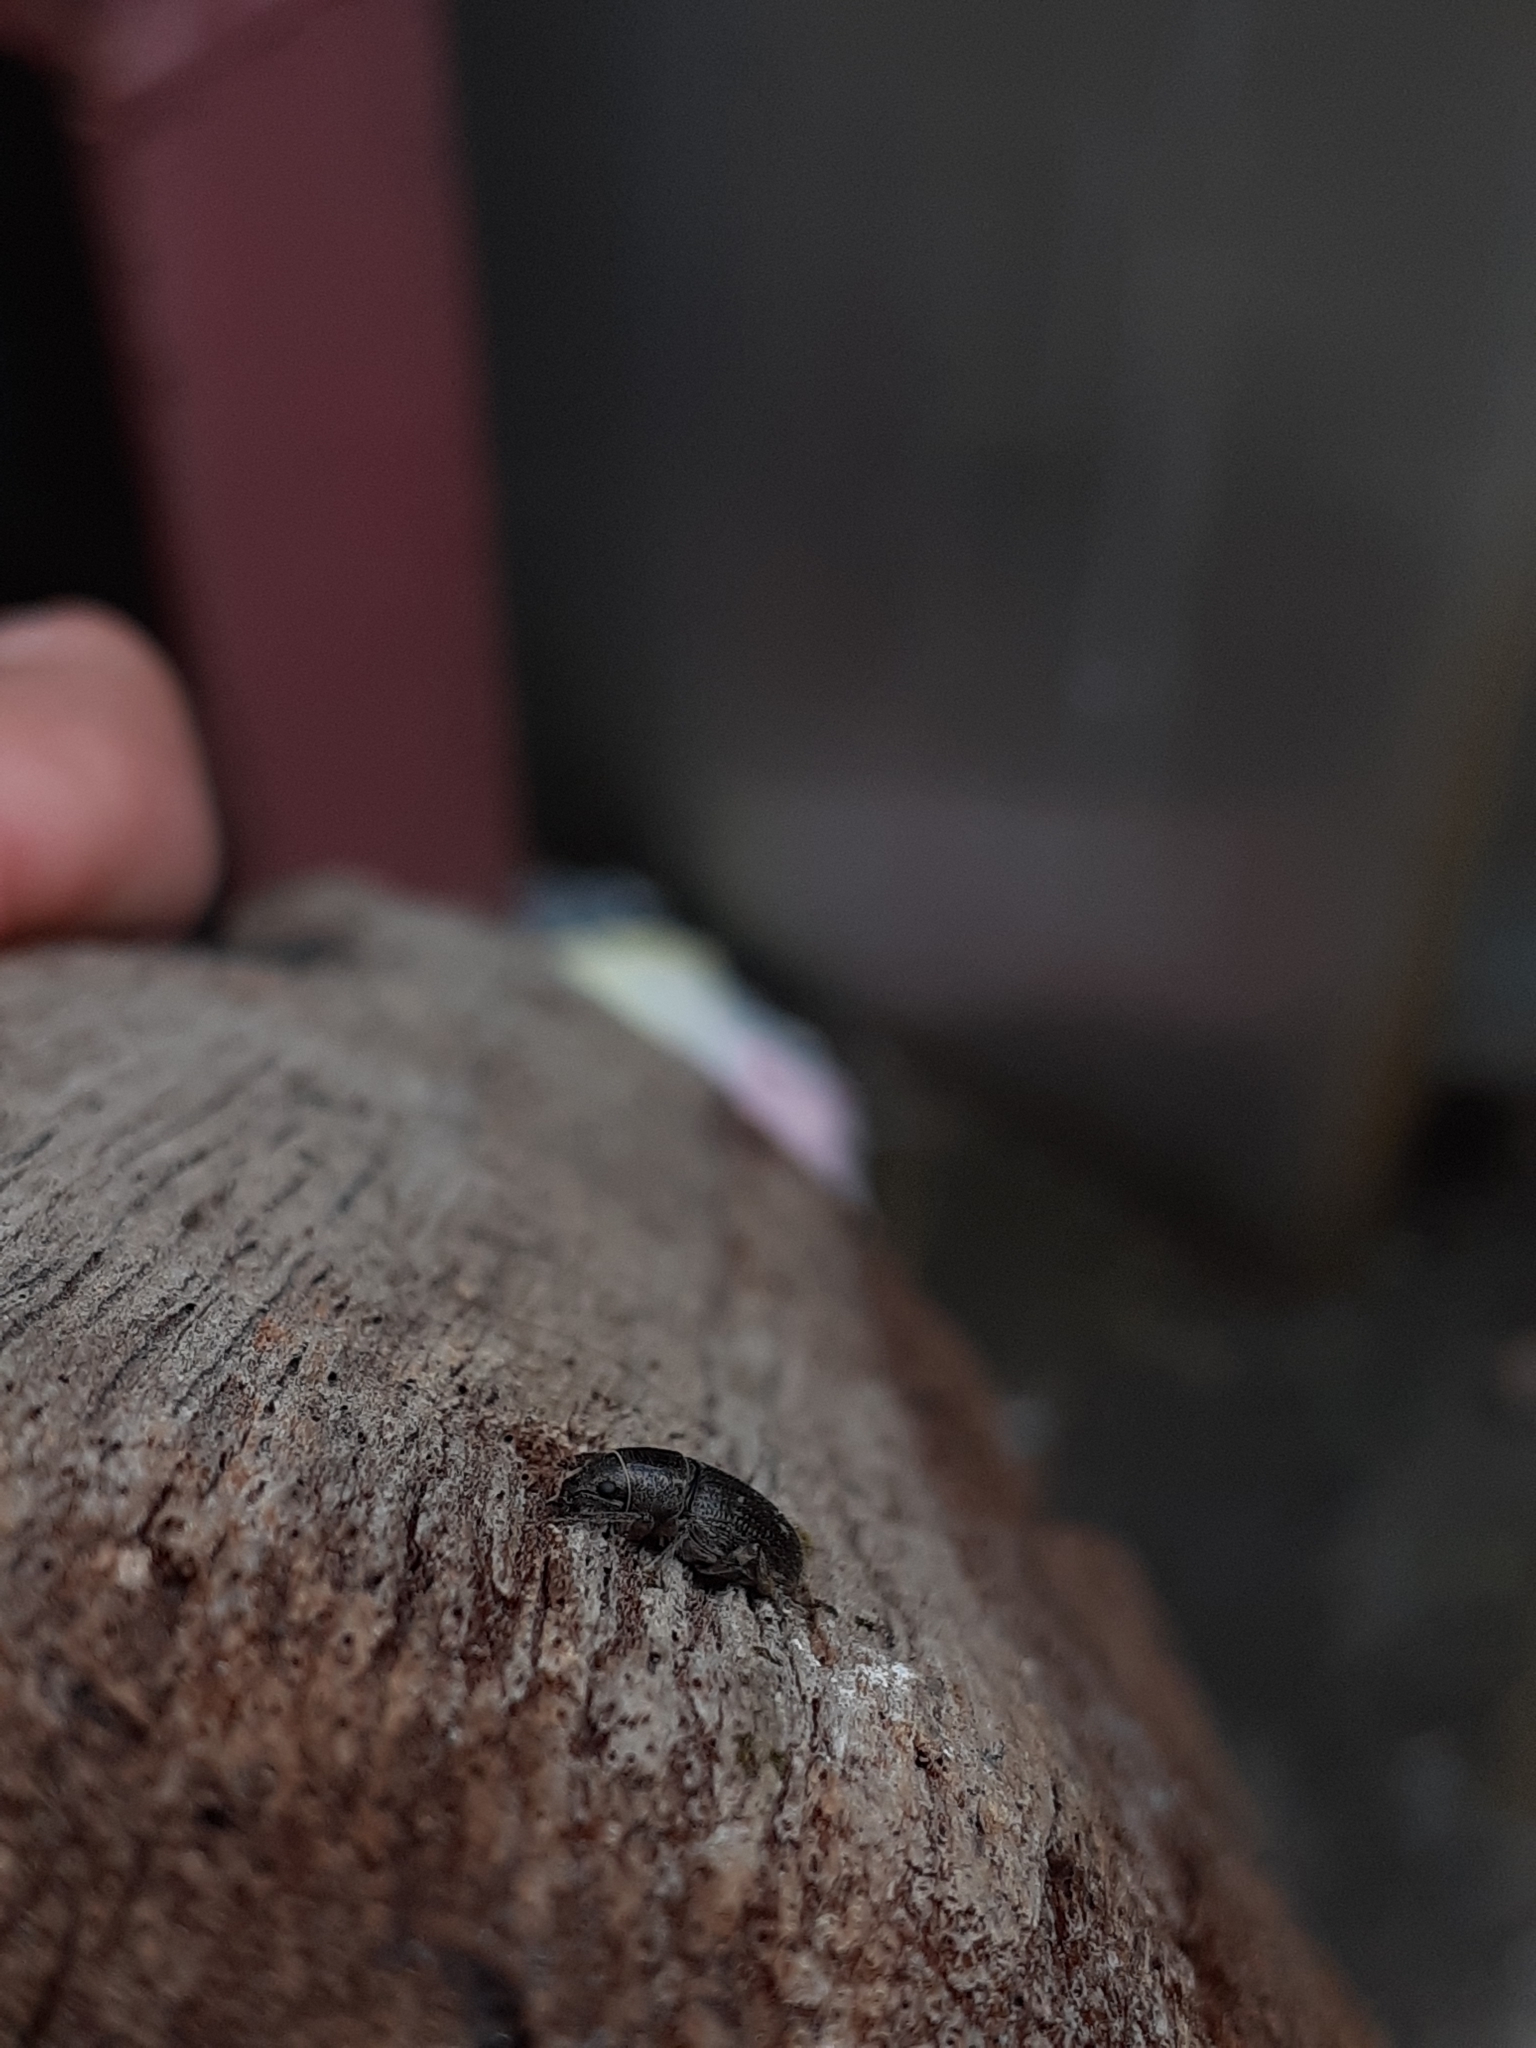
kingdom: Animalia
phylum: Arthropoda
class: Insecta
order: Coleoptera
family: Curculionidae
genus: Leschenius
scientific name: Leschenius vulcanorum
